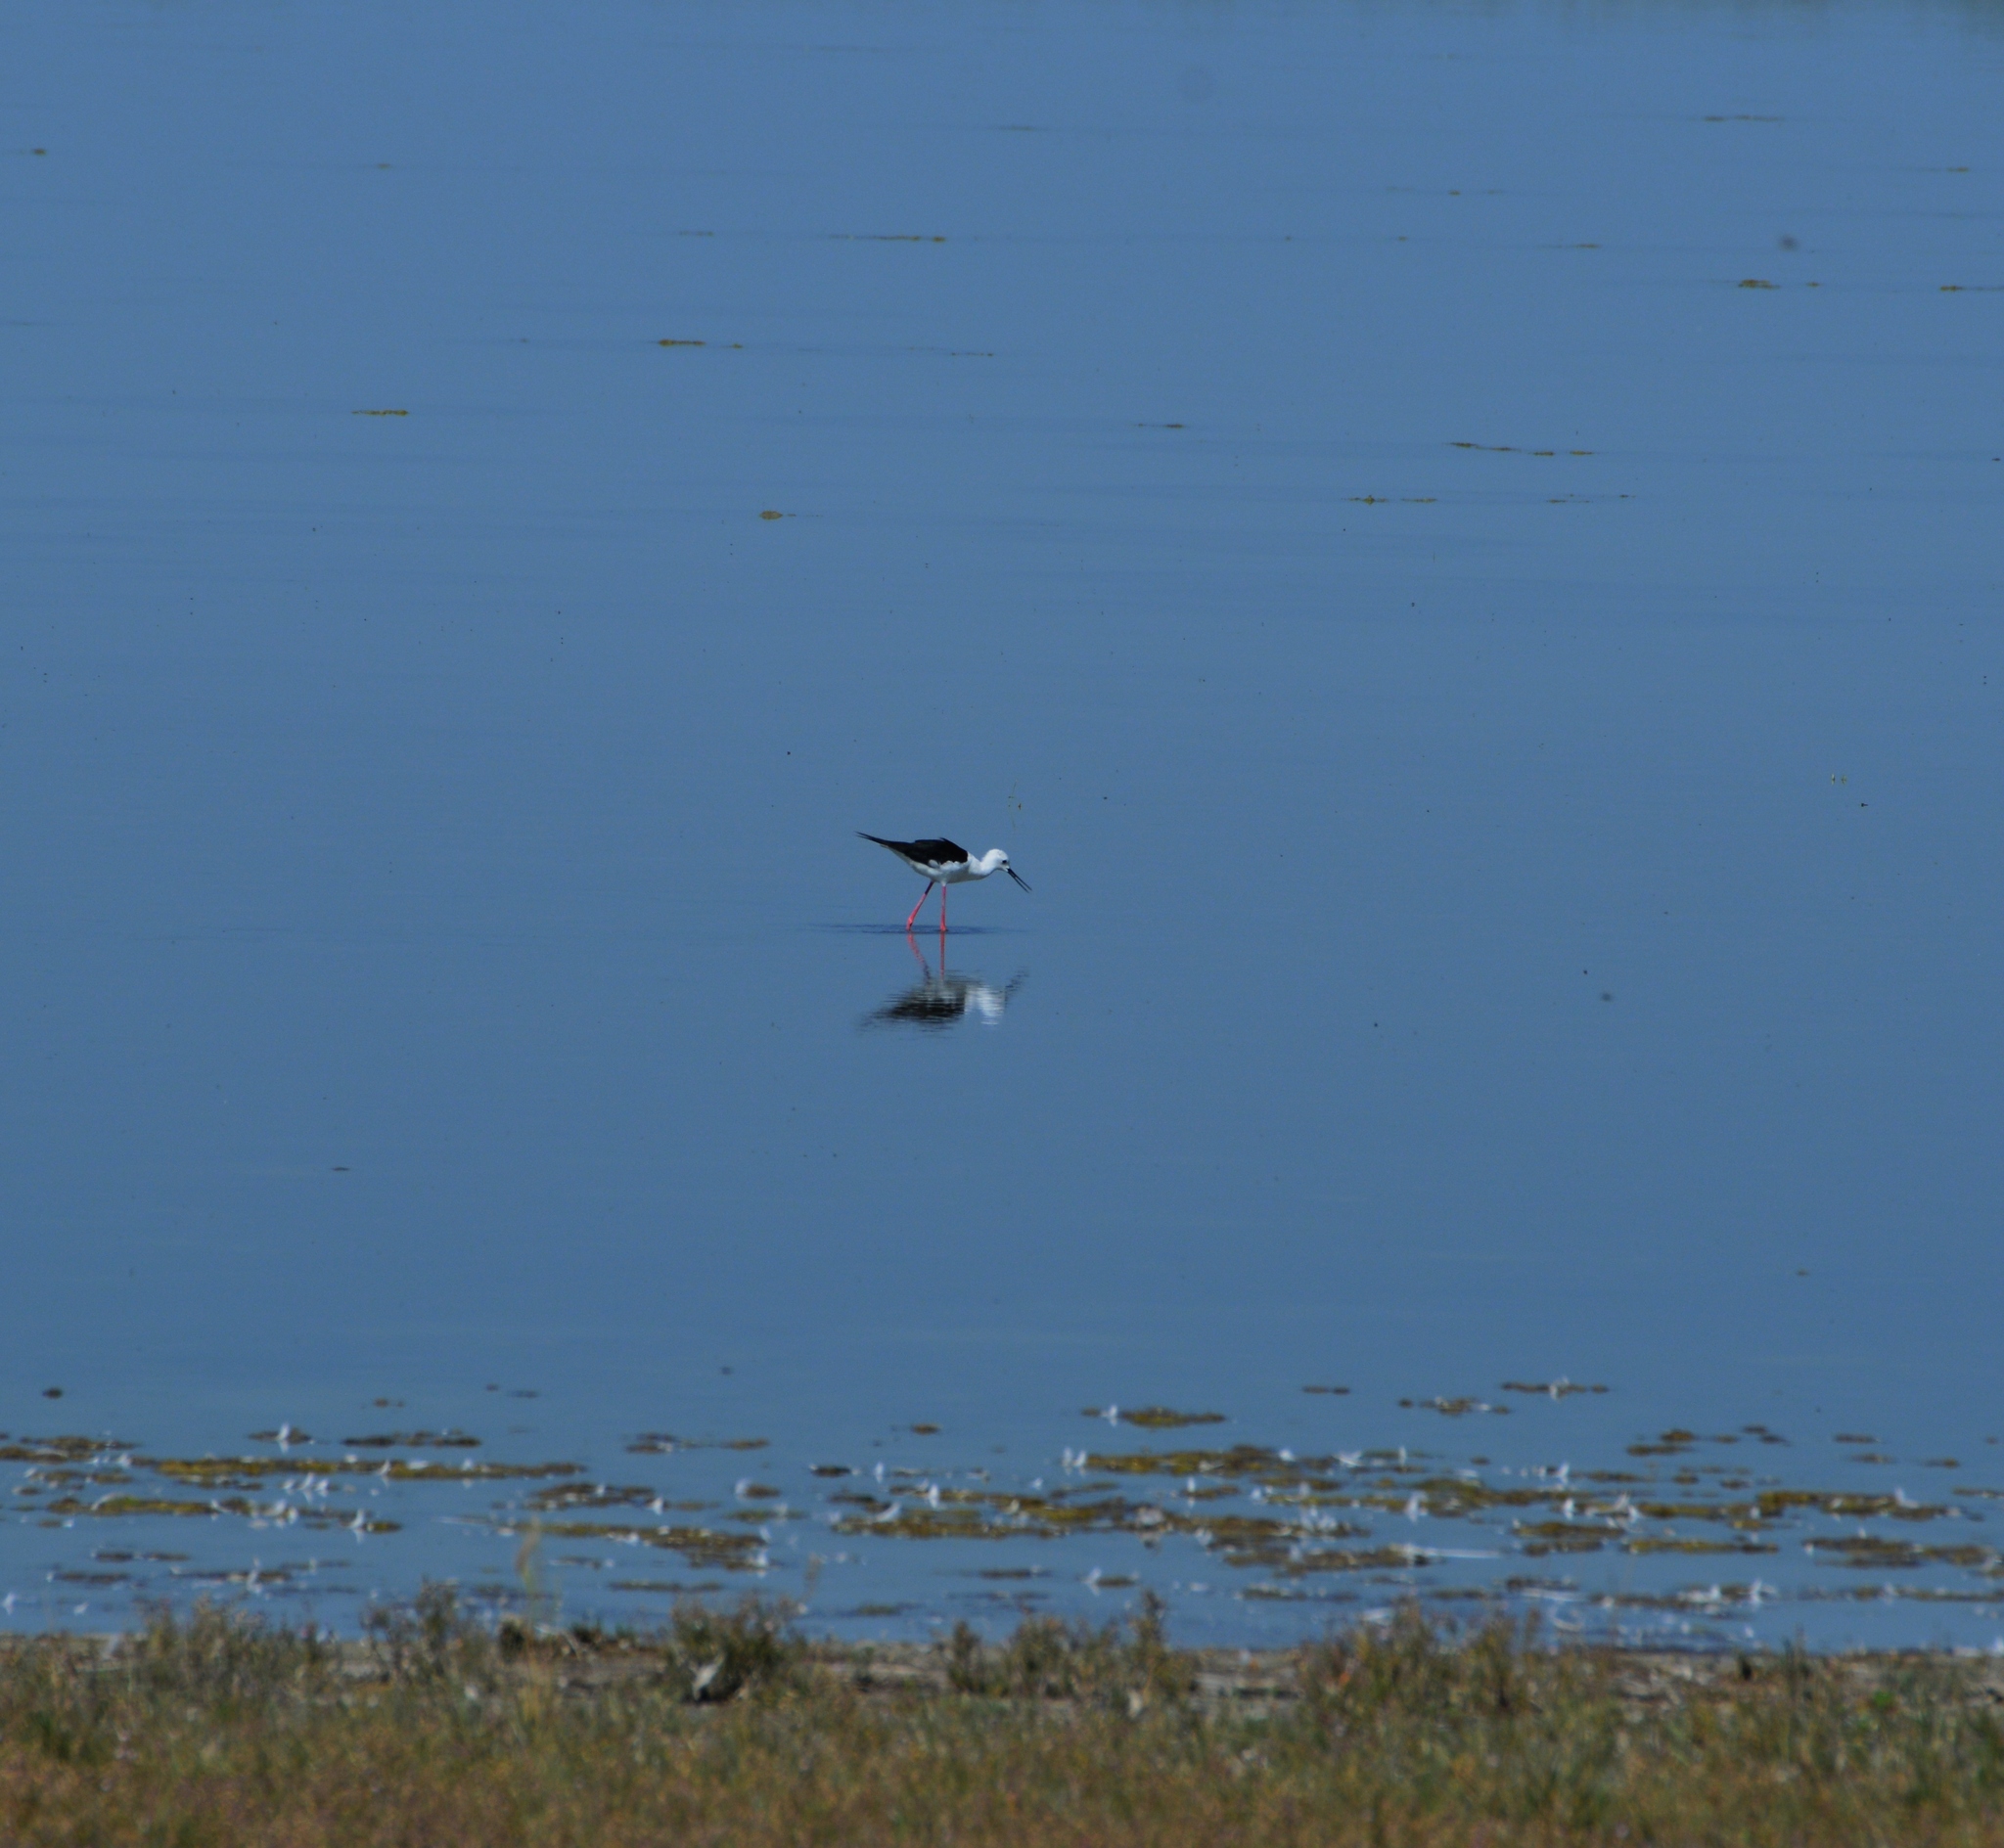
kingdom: Animalia
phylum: Chordata
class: Aves
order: Charadriiformes
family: Recurvirostridae
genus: Himantopus
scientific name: Himantopus himantopus
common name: Black-winged stilt
